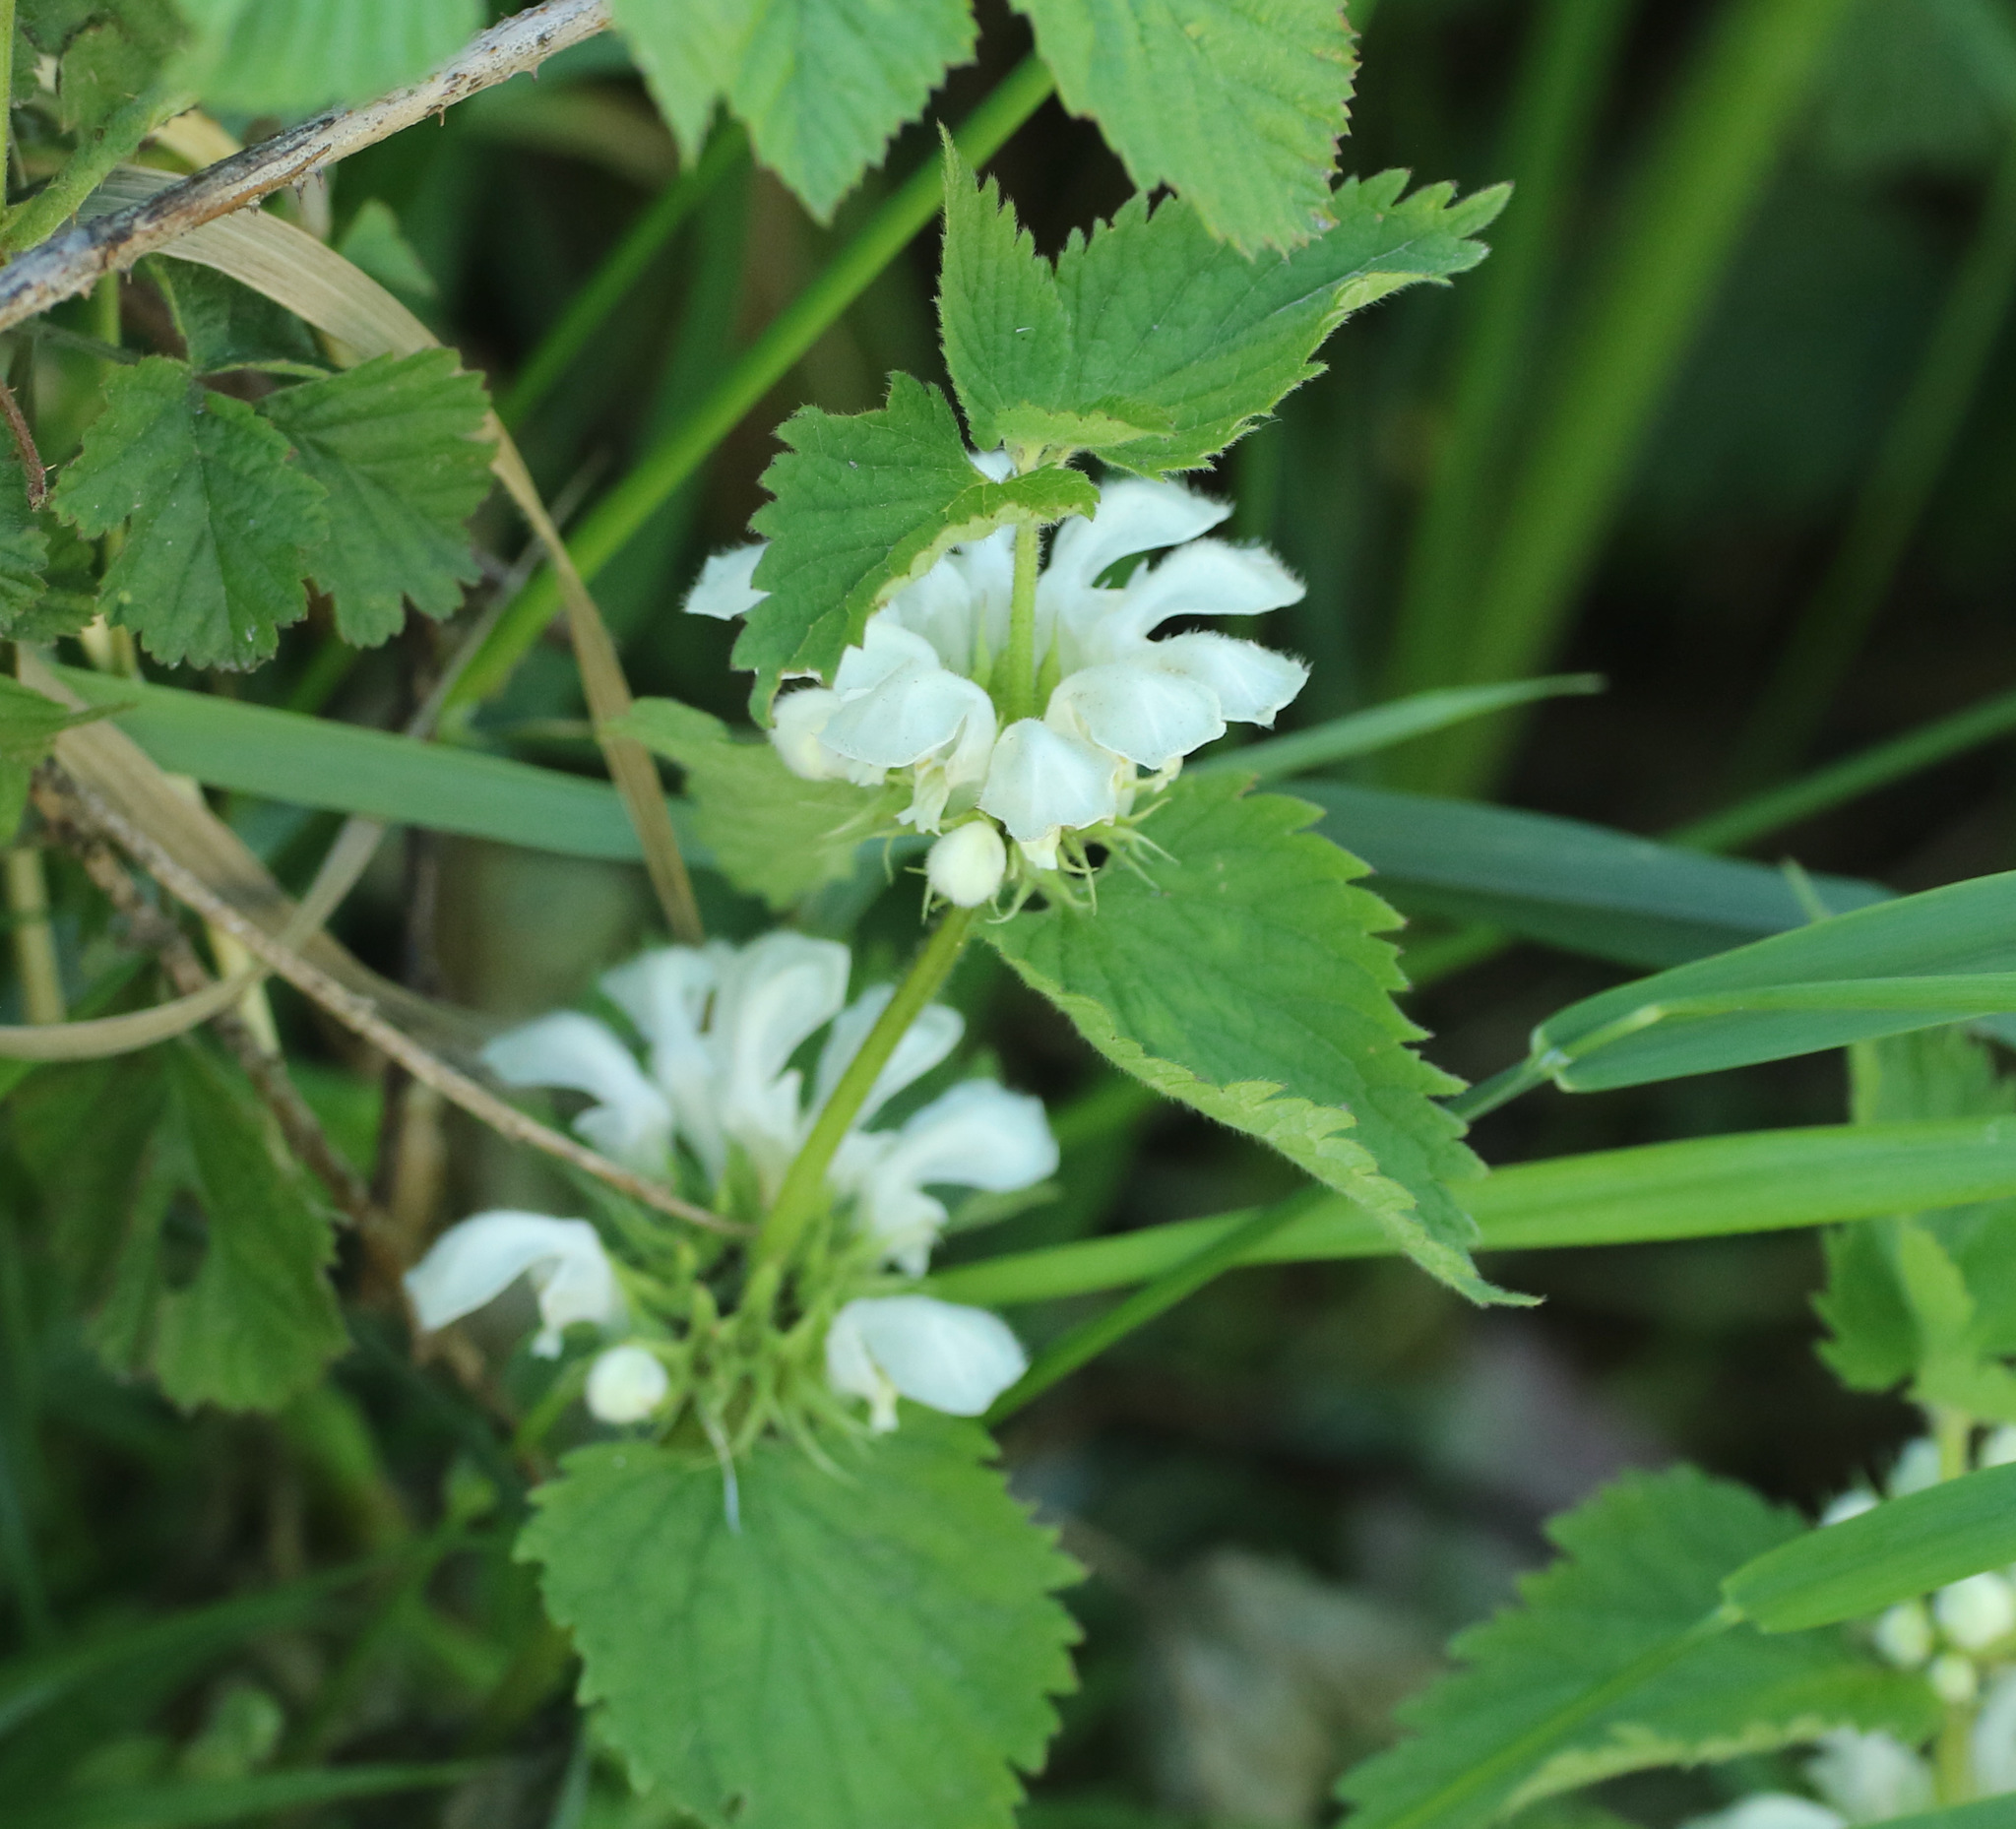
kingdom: Plantae
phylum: Tracheophyta
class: Magnoliopsida
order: Lamiales
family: Lamiaceae
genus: Lamium
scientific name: Lamium album
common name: White dead-nettle
